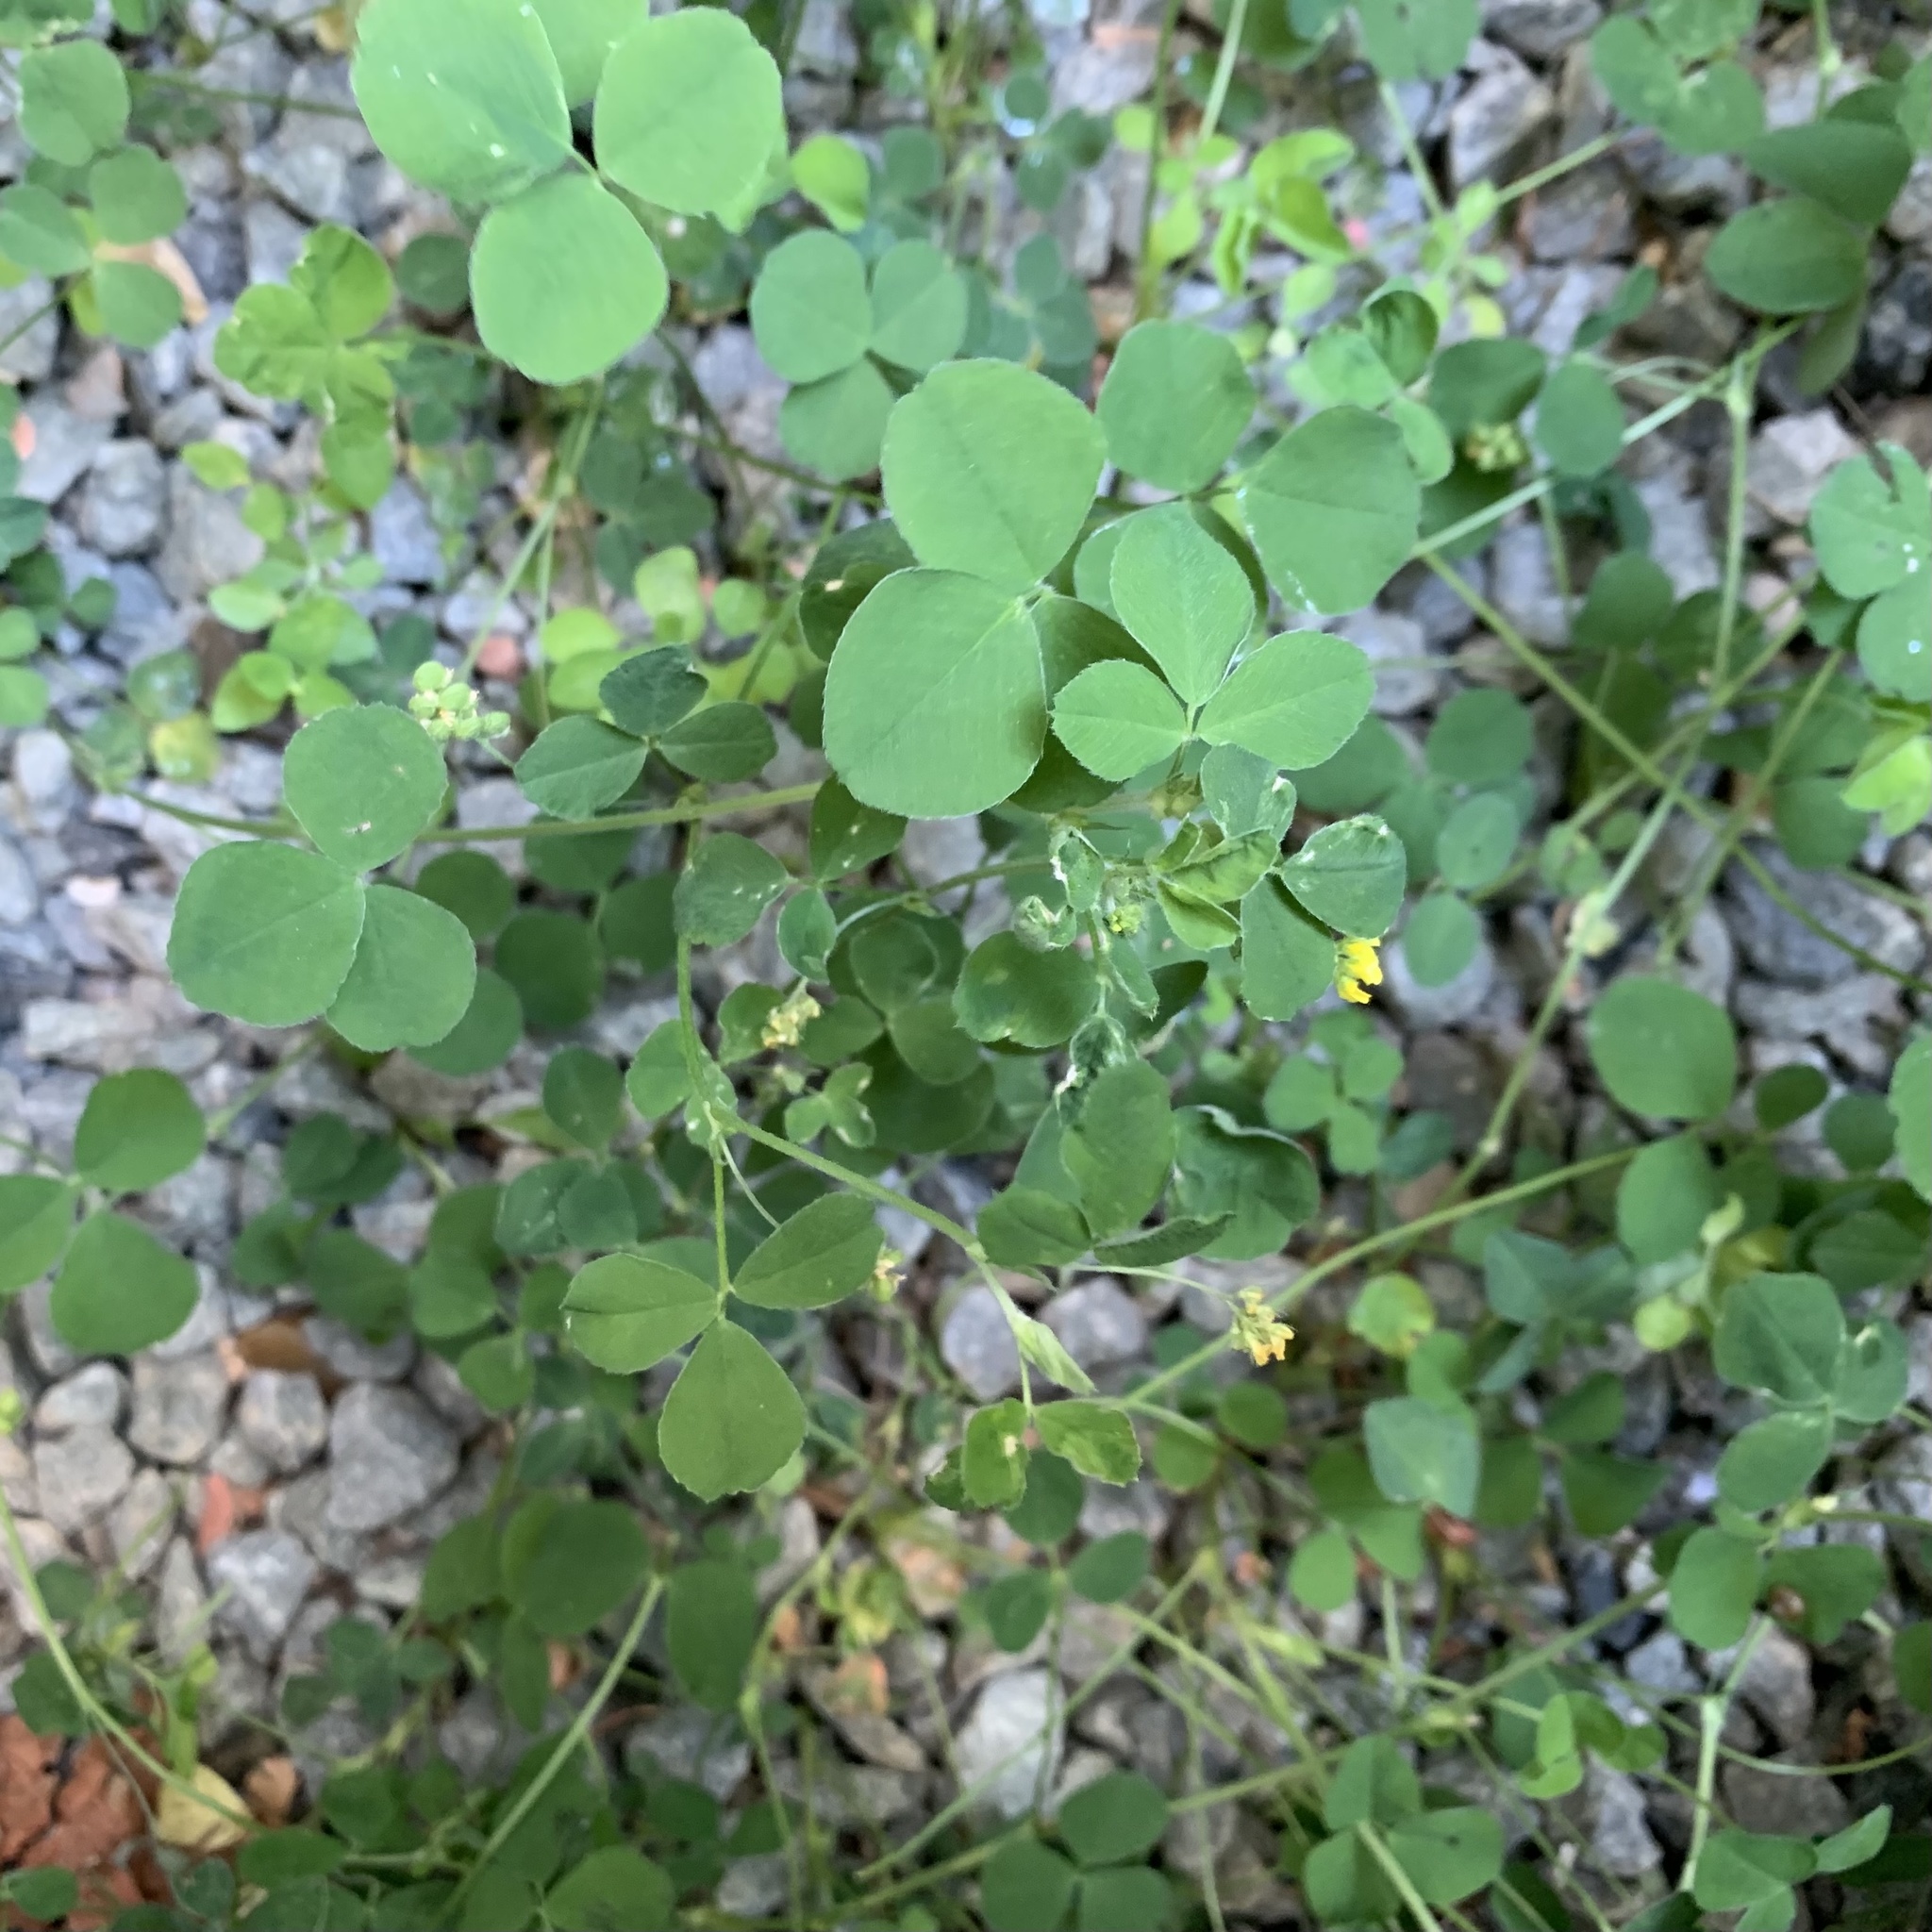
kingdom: Plantae
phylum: Tracheophyta
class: Magnoliopsida
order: Fabales
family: Fabaceae
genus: Medicago
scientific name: Medicago lupulina
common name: Black medick
